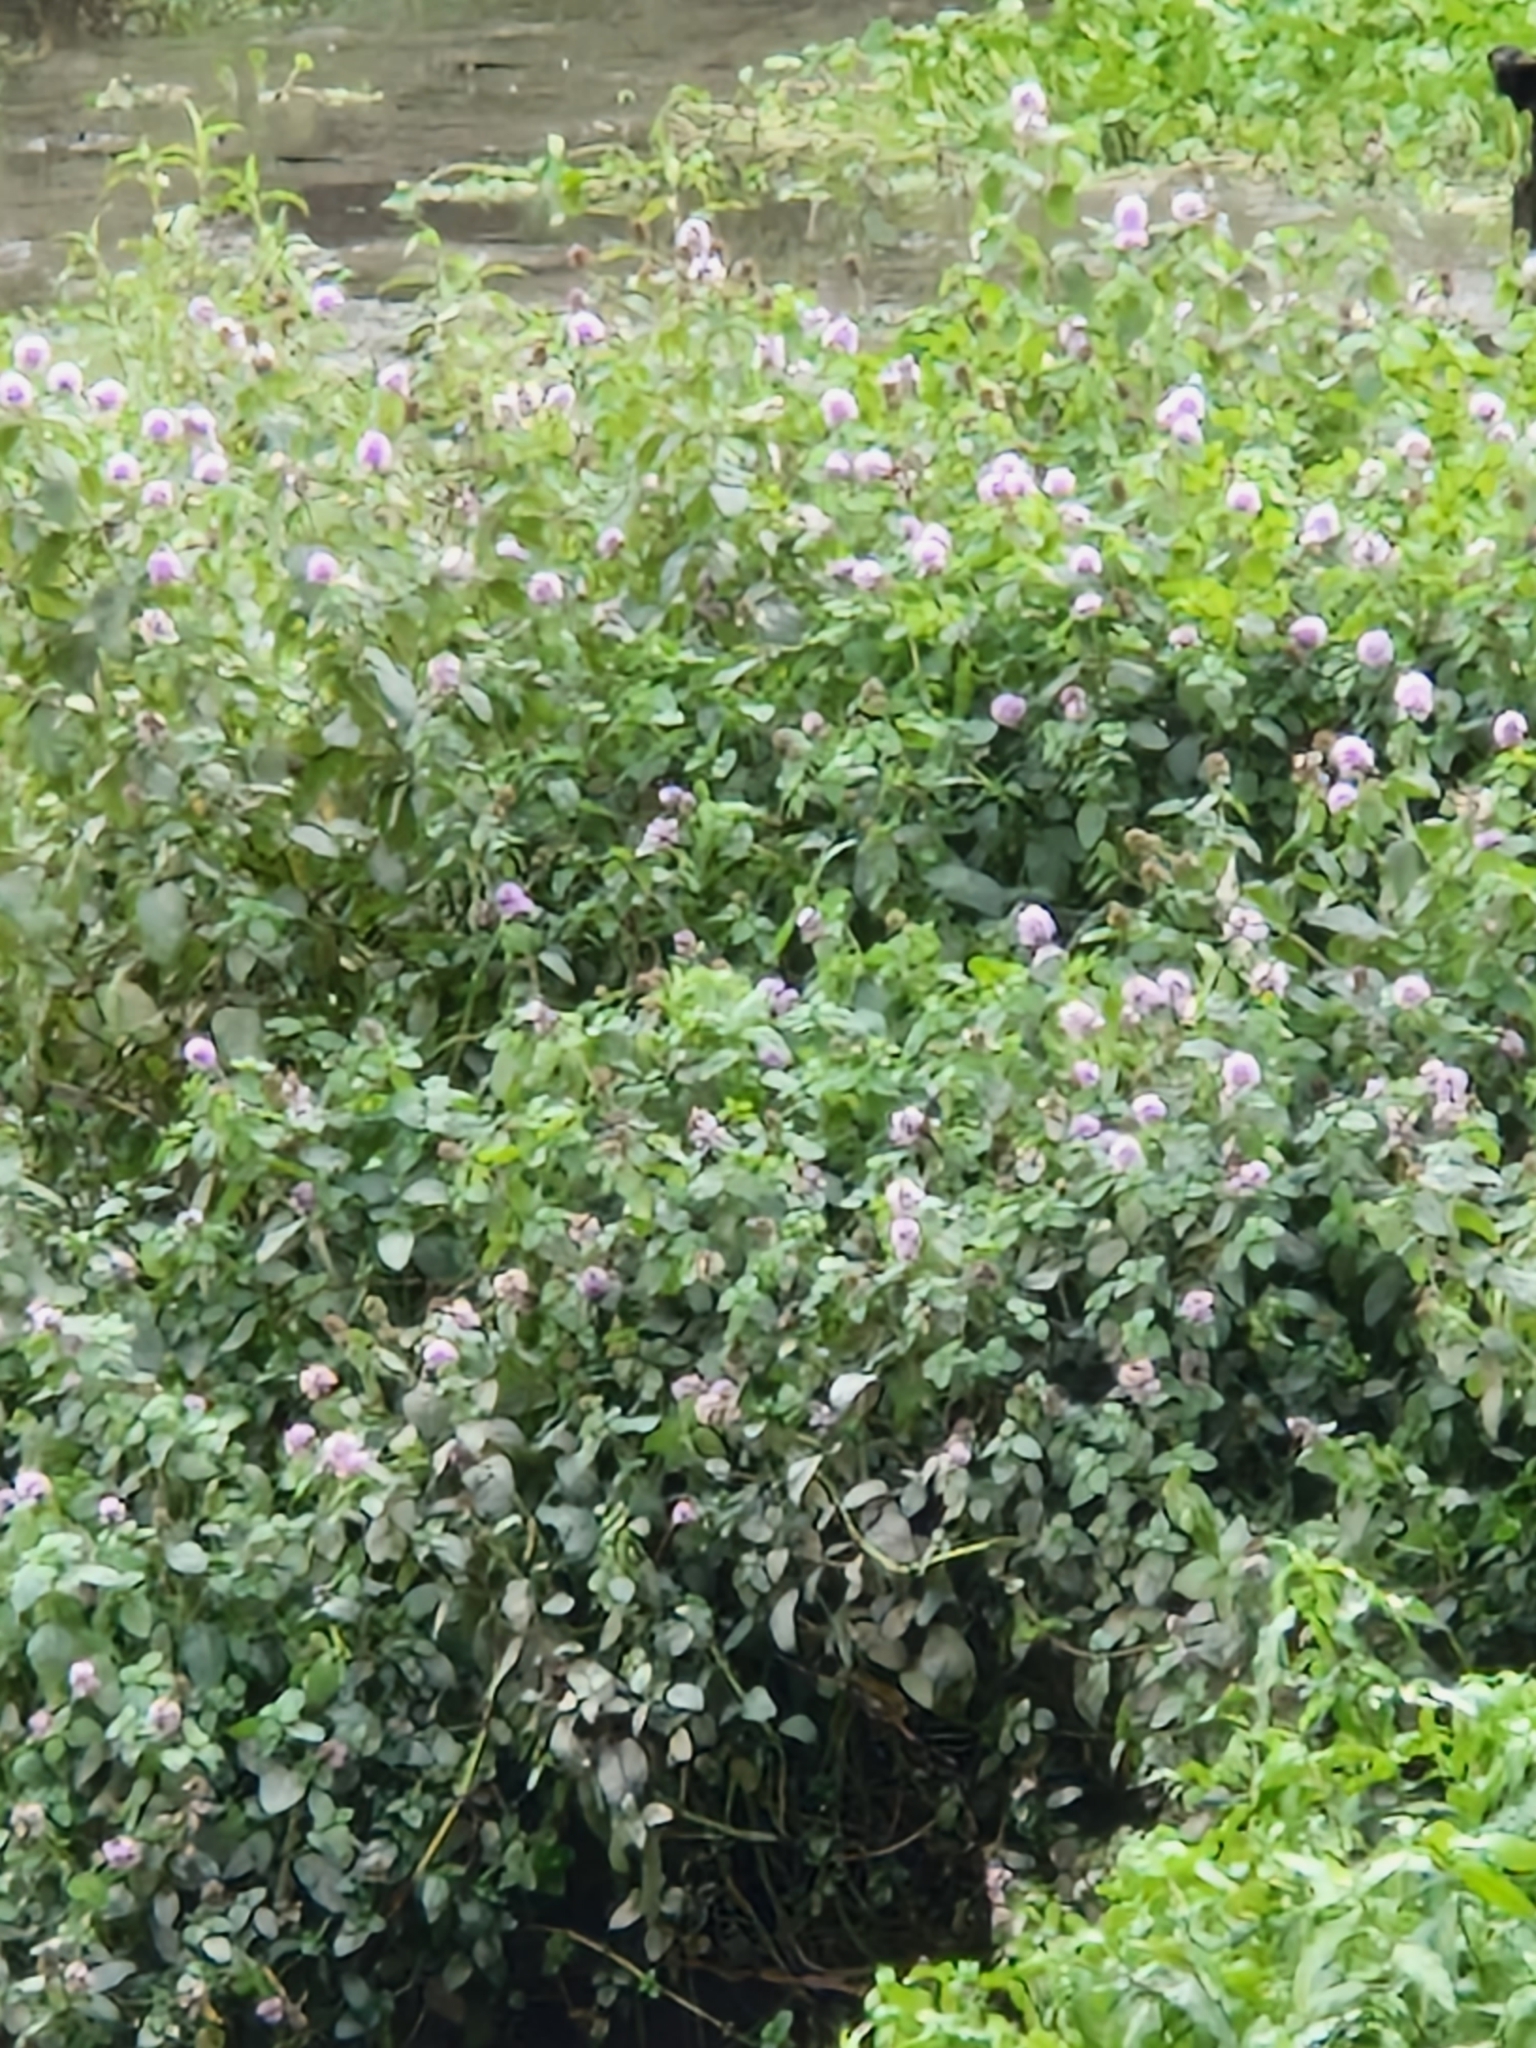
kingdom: Plantae
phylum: Tracheophyta
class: Magnoliopsida
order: Lamiales
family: Lamiaceae
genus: Mentha
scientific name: Mentha aquatica
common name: Water mint
